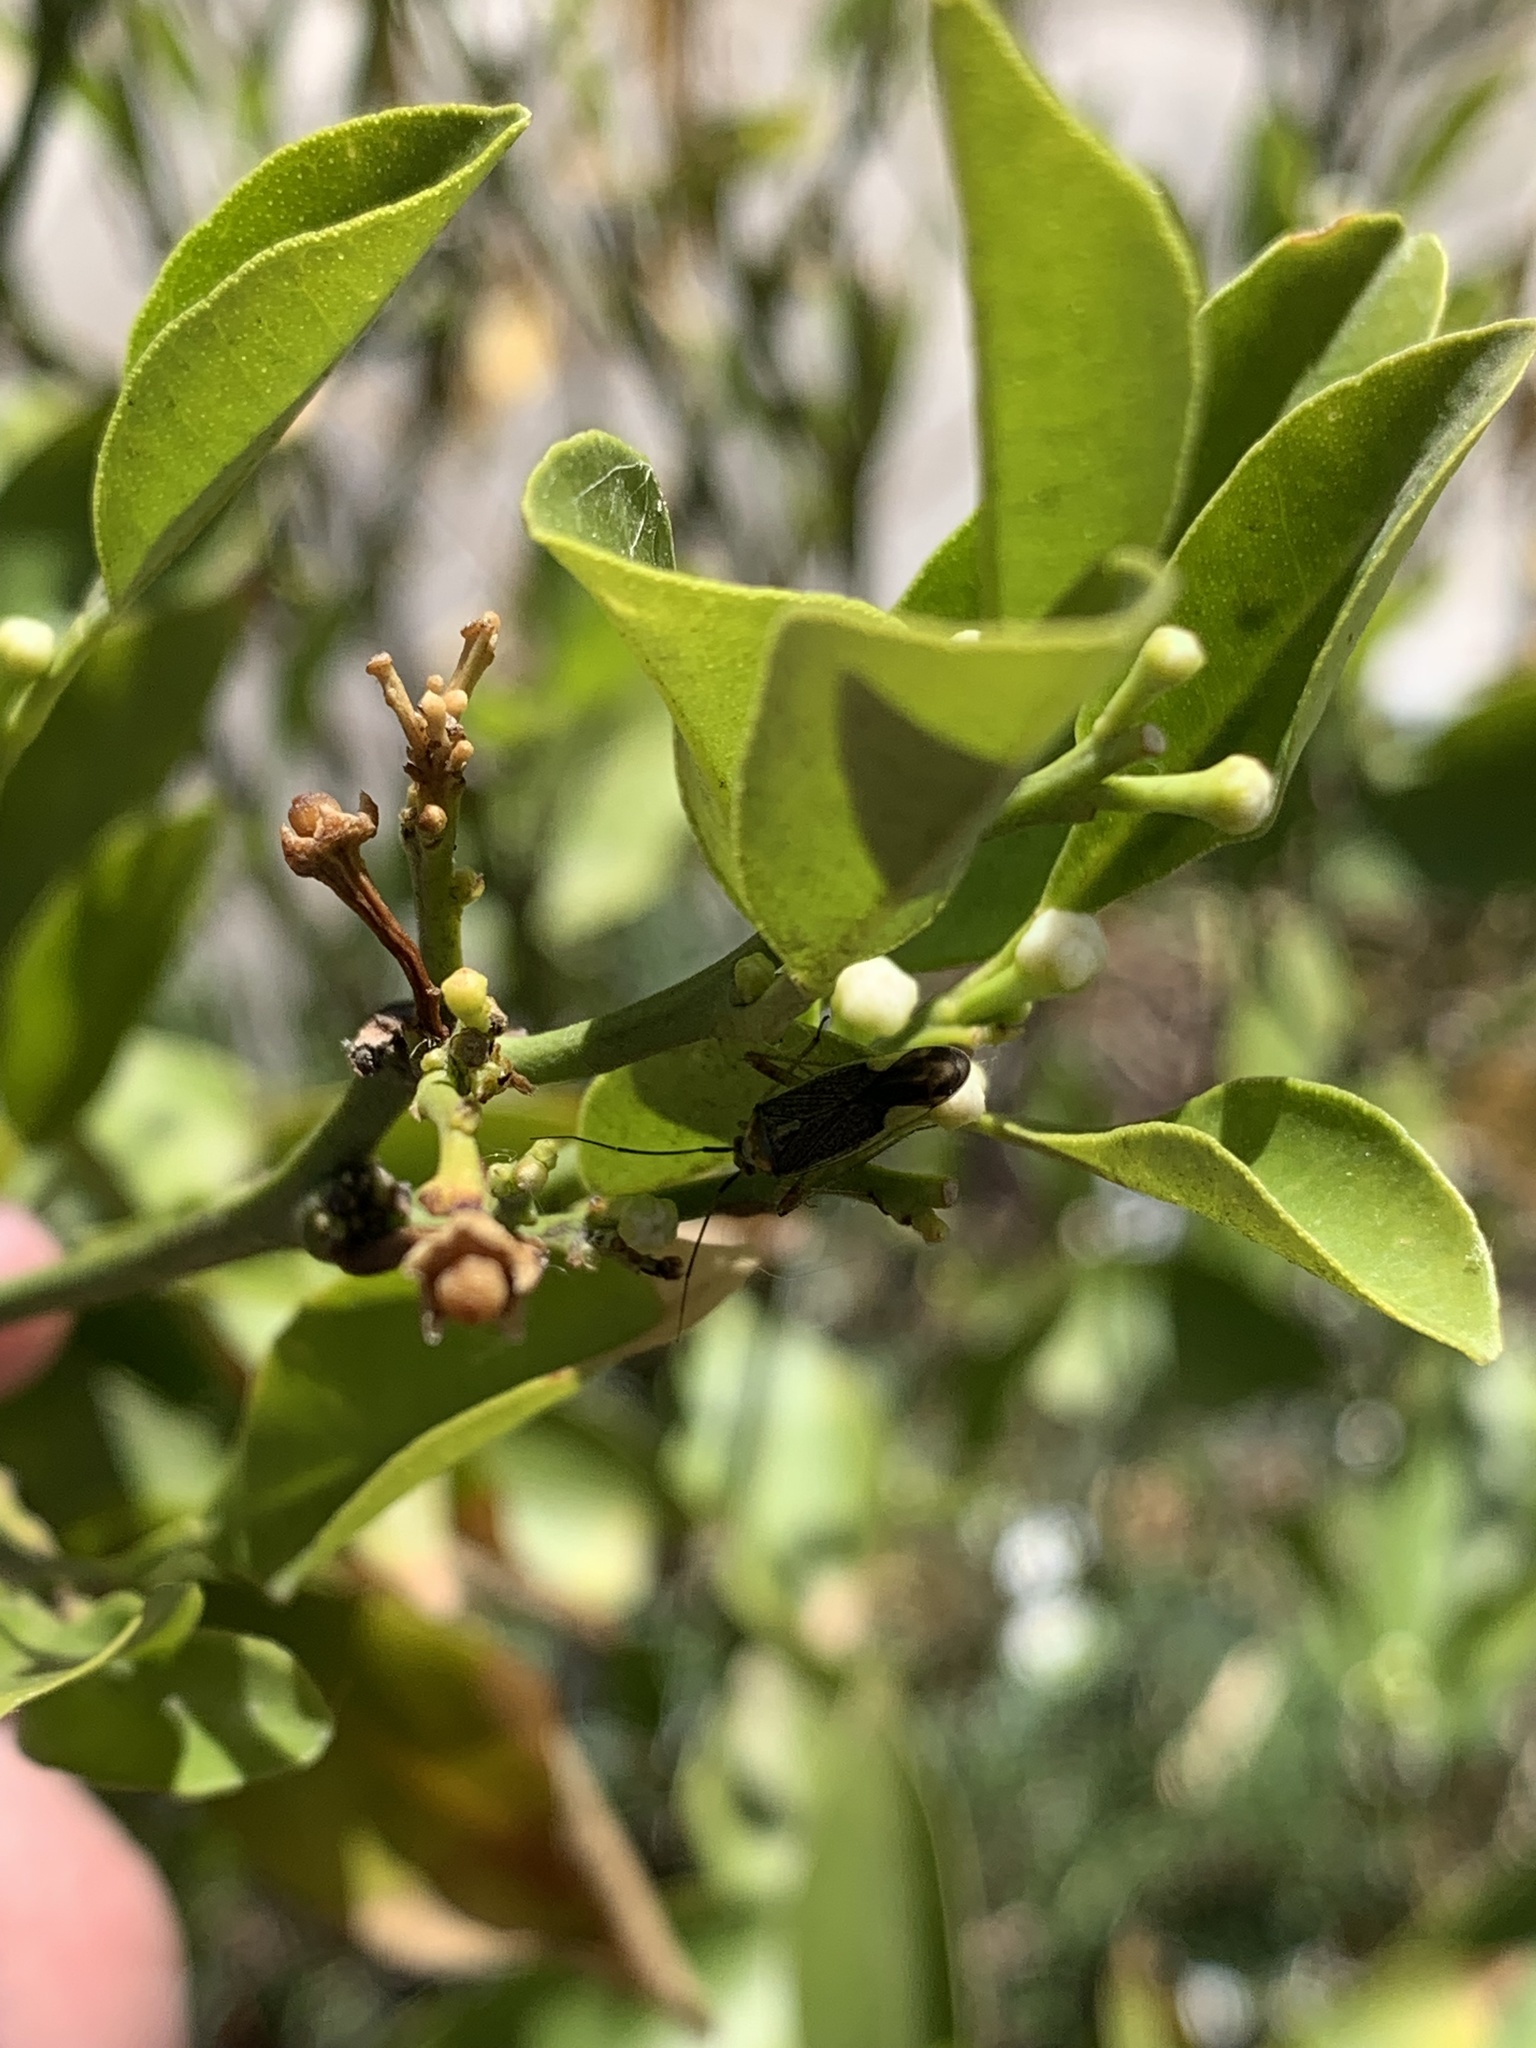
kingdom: Animalia
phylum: Arthropoda
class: Insecta
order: Hemiptera
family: Miridae
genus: Closterotomus
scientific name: Closterotomus trivialis
